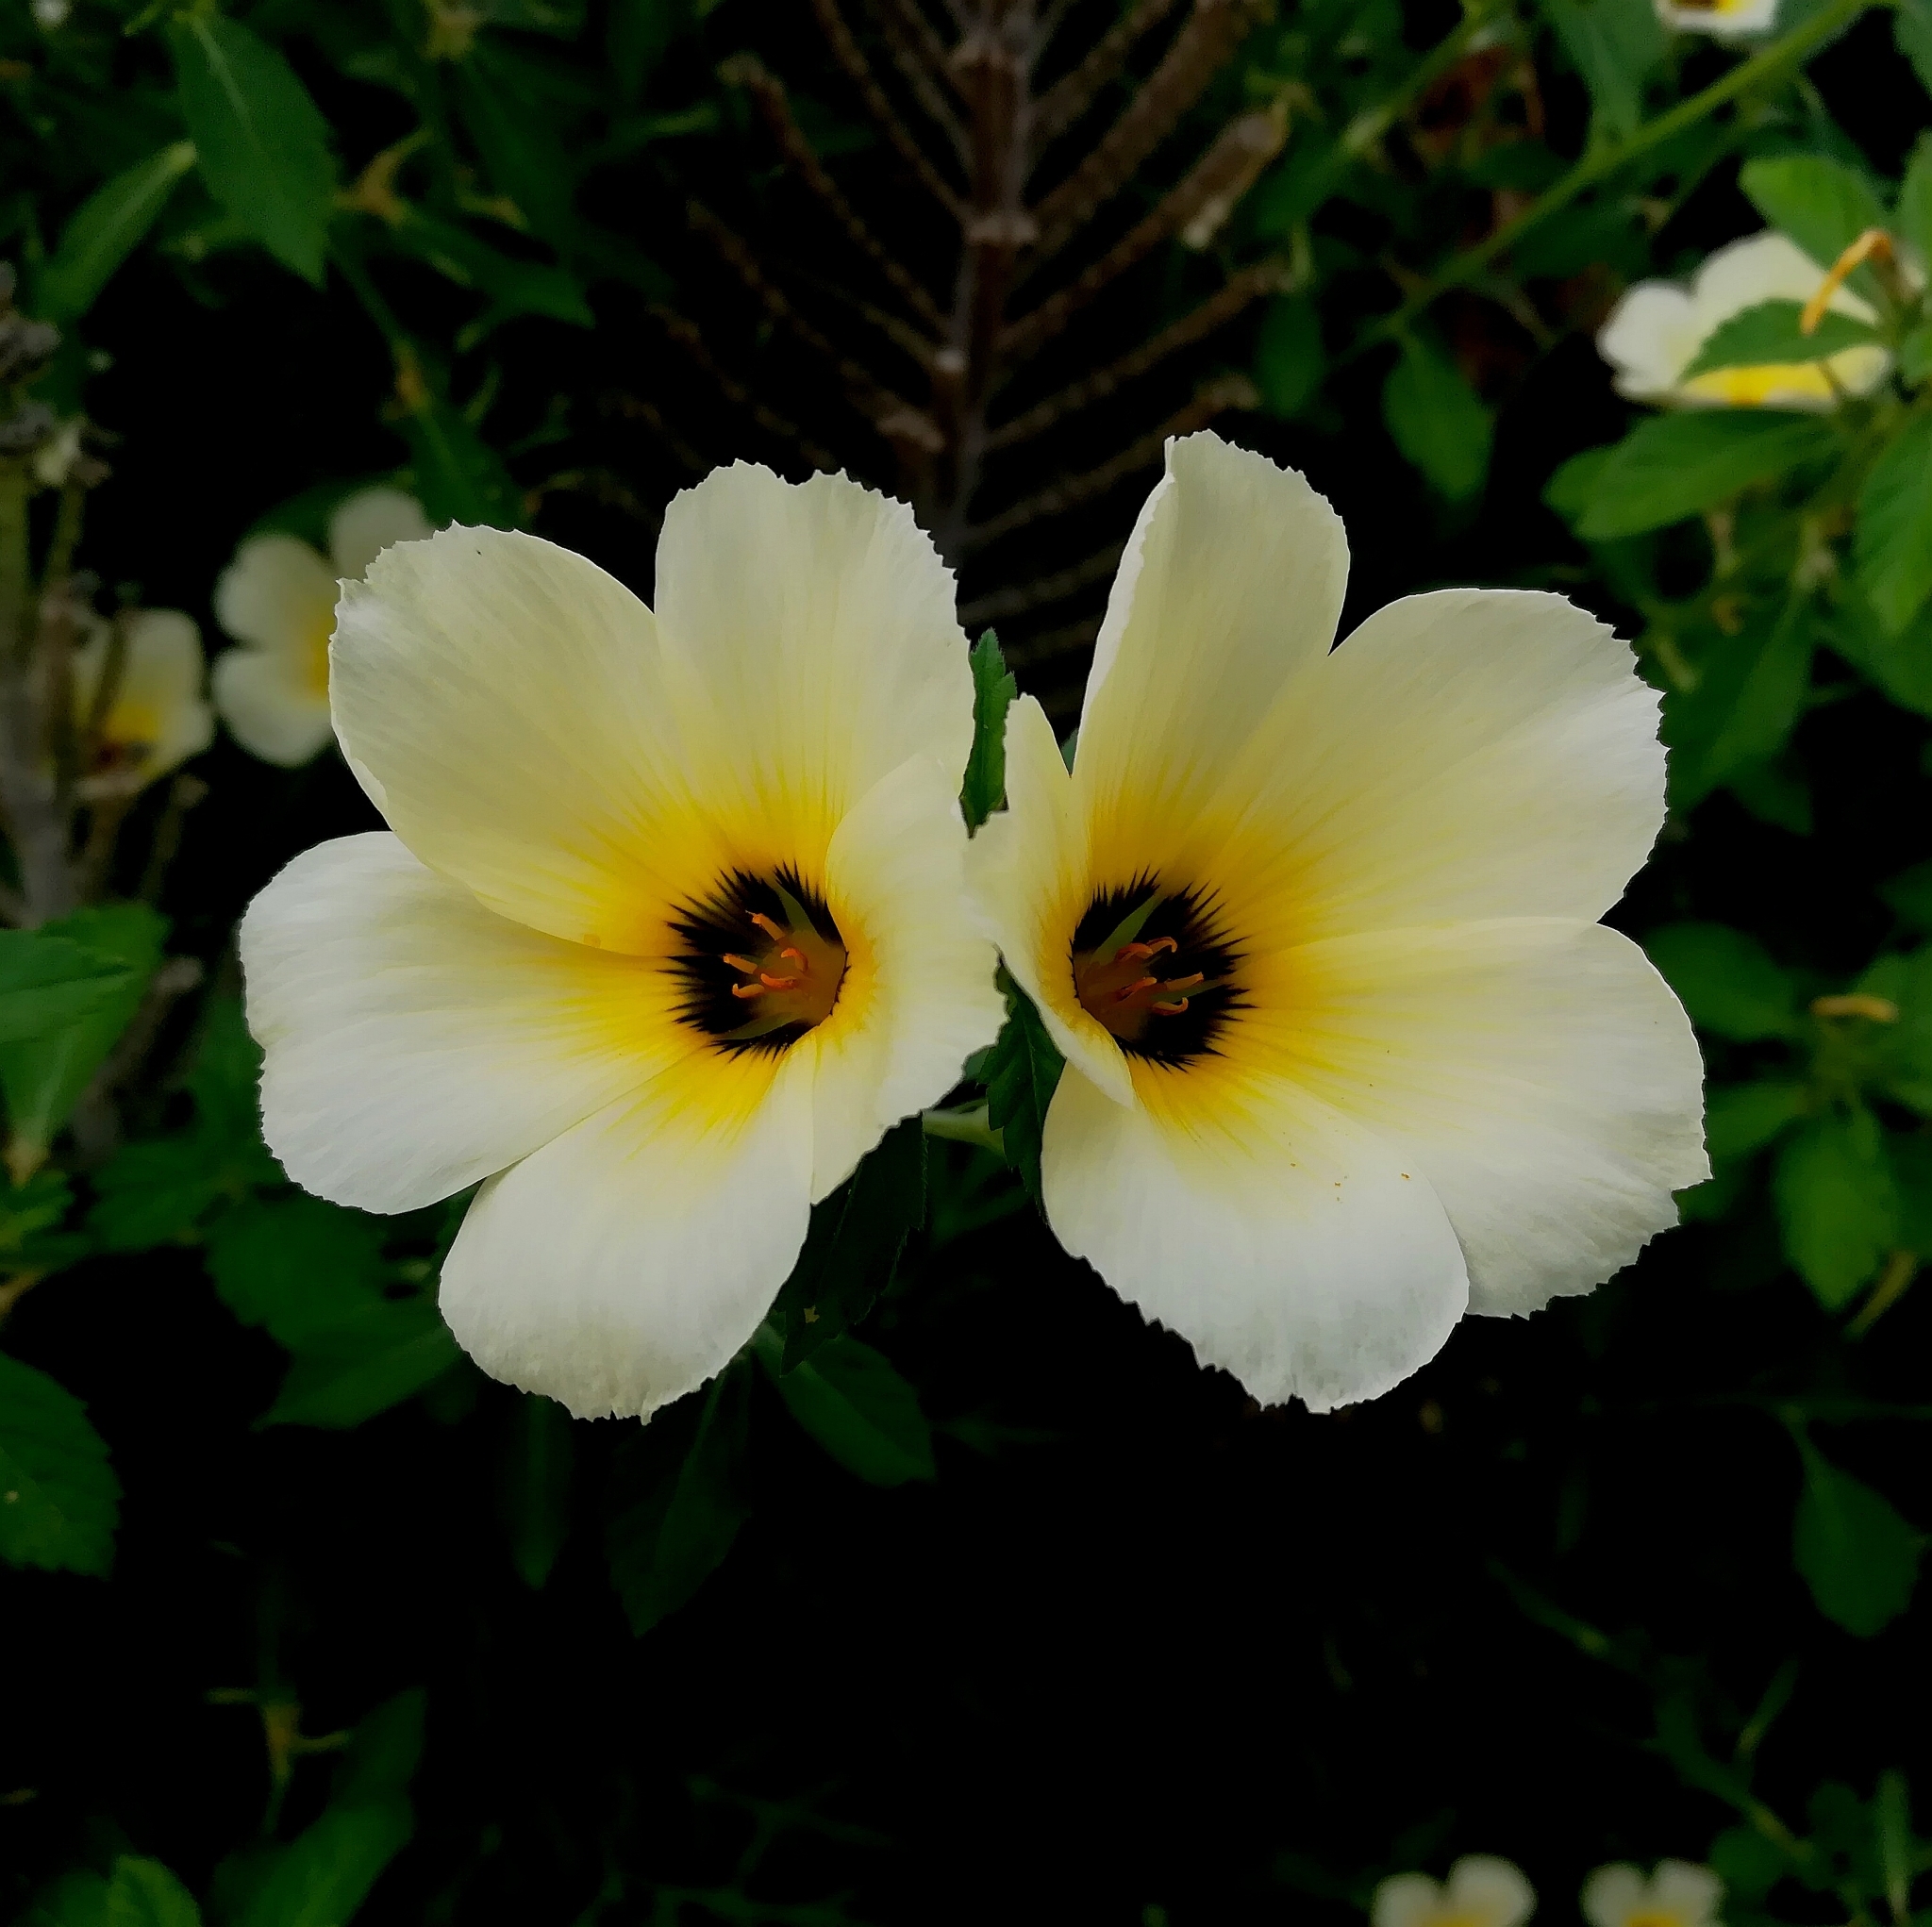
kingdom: Plantae
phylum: Tracheophyta
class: Magnoliopsida
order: Malpighiales
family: Turneraceae
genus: Turnera
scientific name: Turnera subulata
